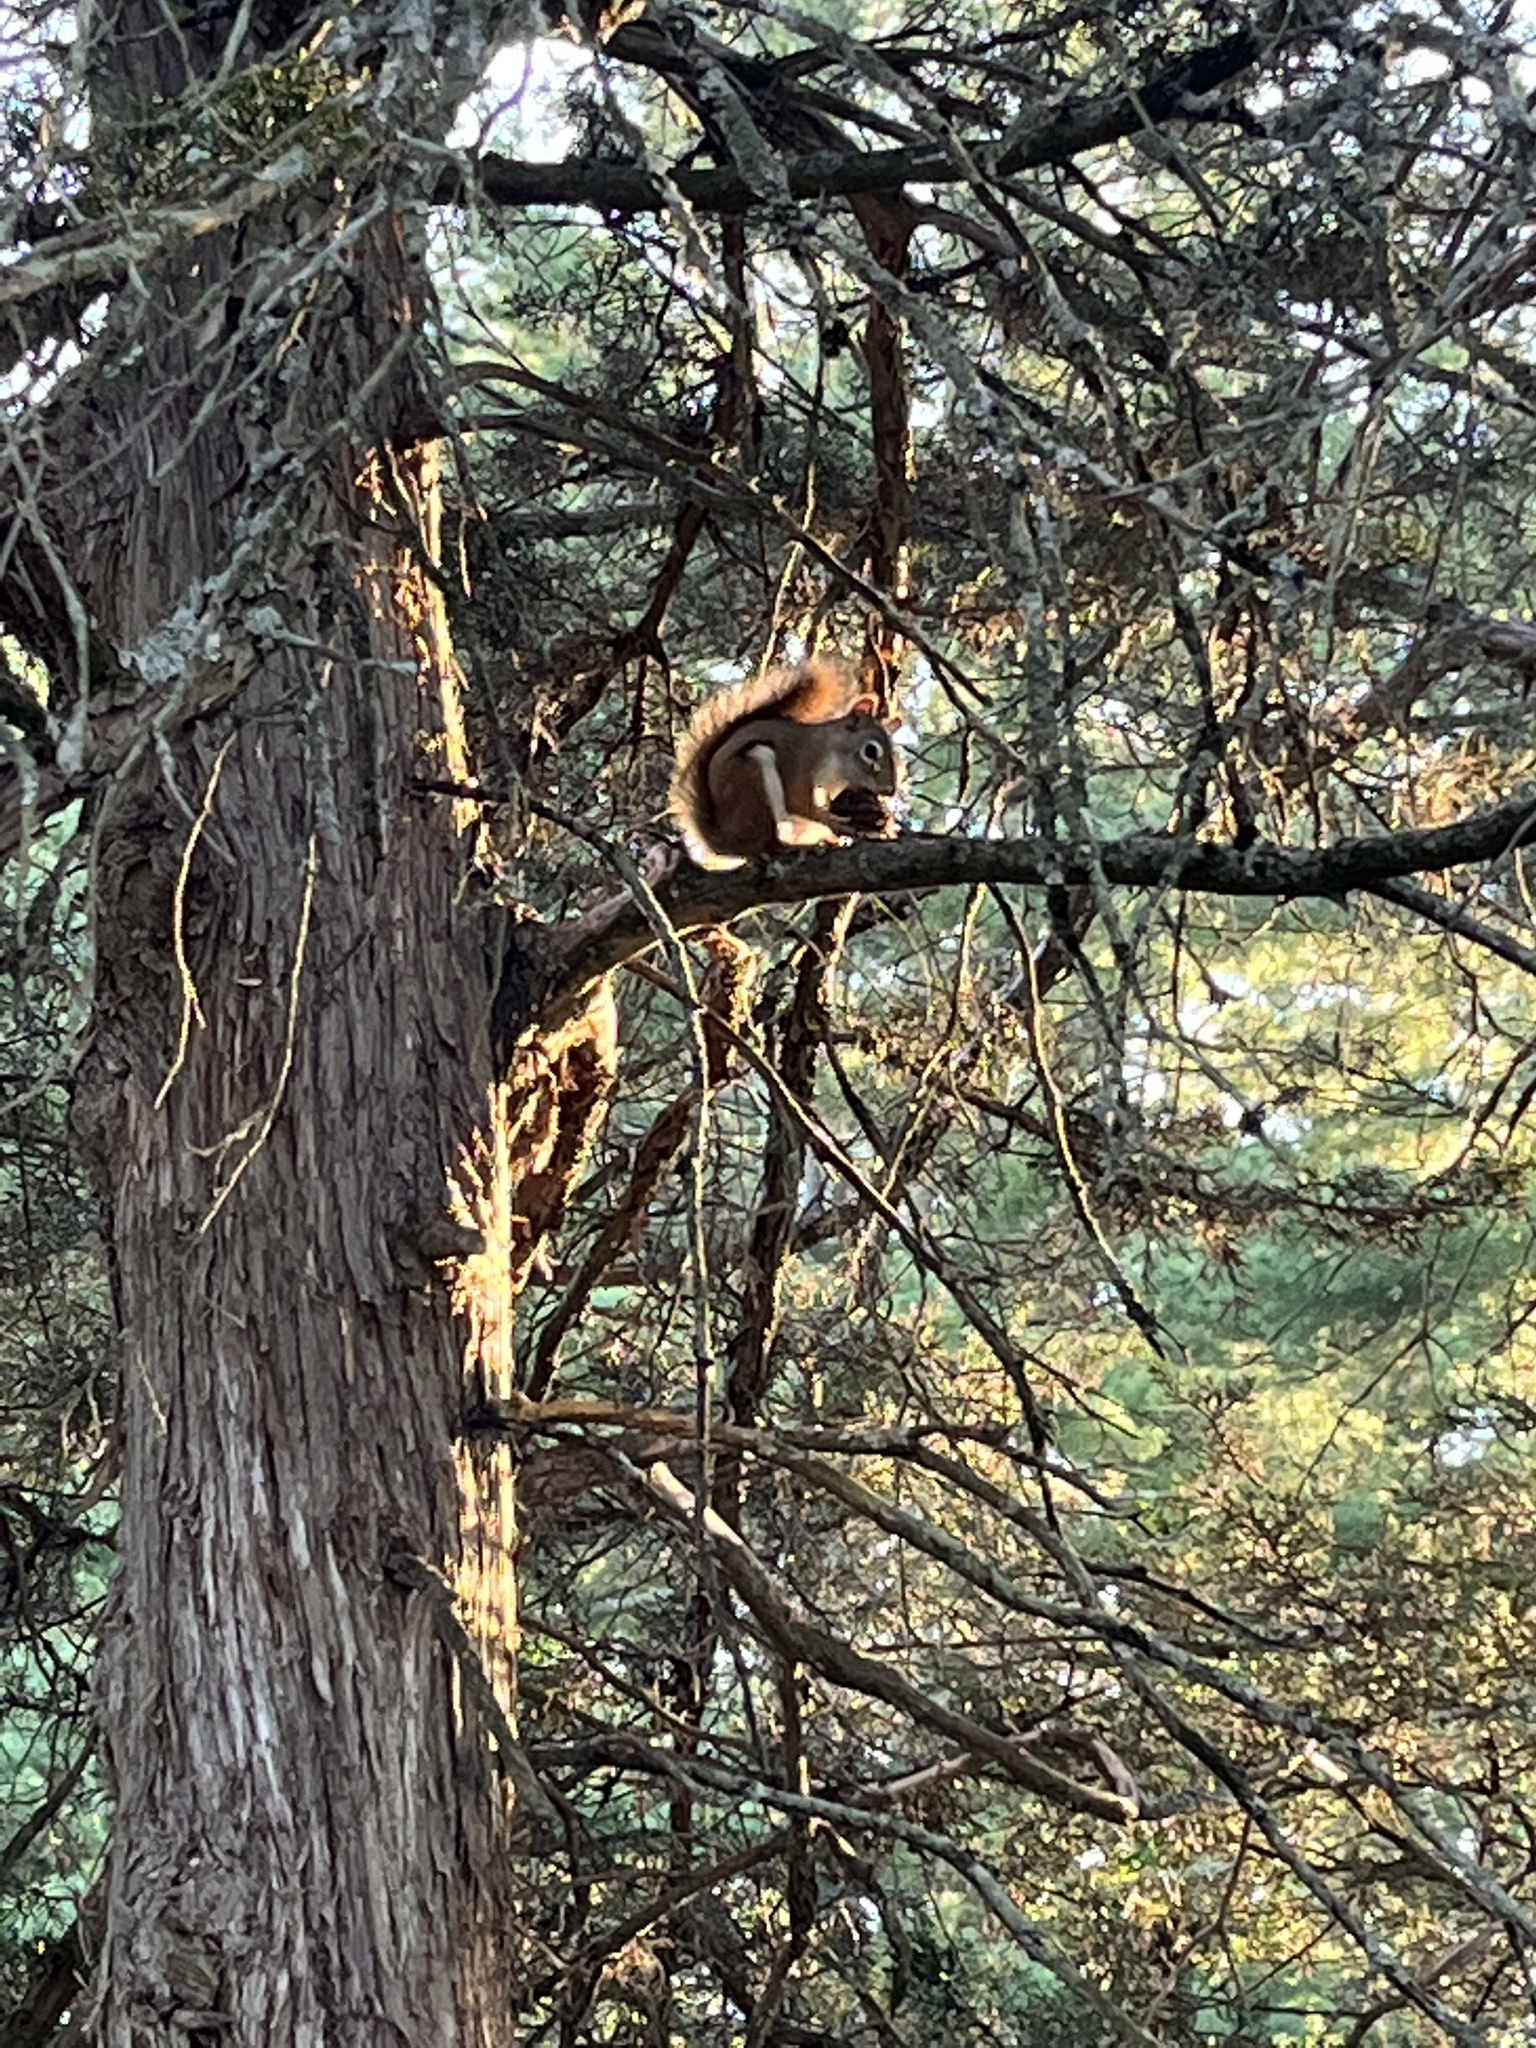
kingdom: Animalia
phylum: Chordata
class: Mammalia
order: Rodentia
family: Sciuridae
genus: Tamiasciurus
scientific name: Tamiasciurus hudsonicus
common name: Red squirrel
